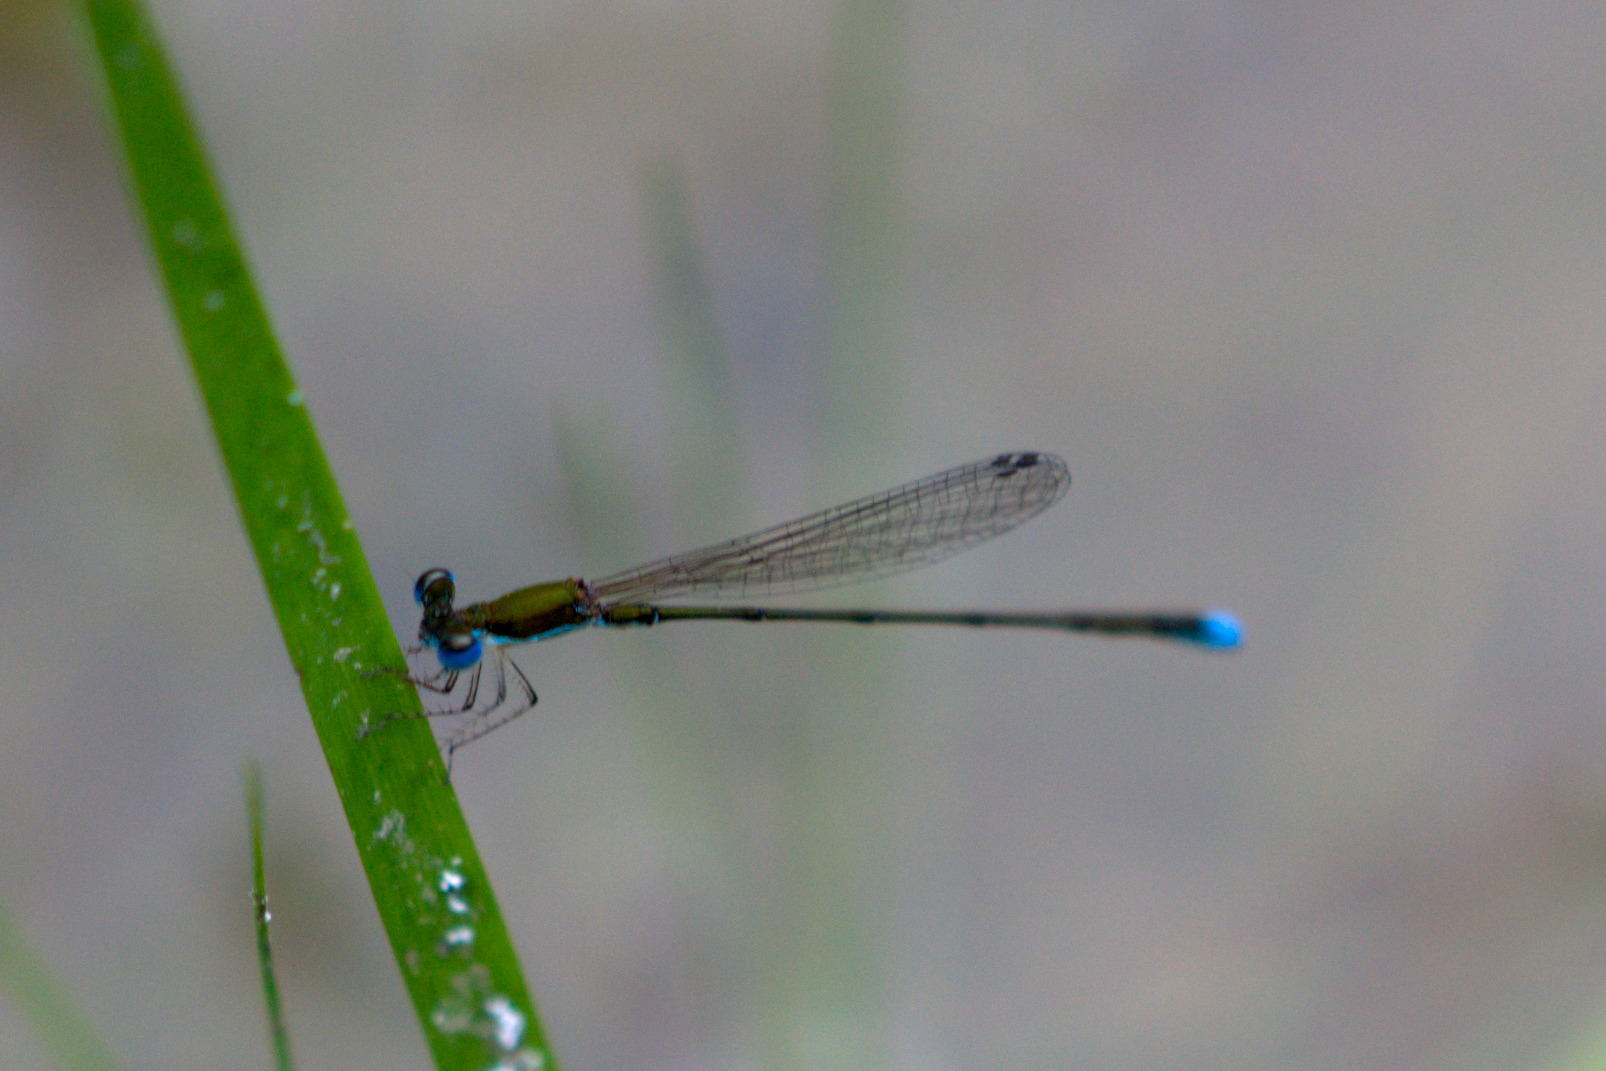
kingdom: Animalia
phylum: Arthropoda
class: Insecta
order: Odonata
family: Coenagrionidae
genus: Nehalennia
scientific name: Nehalennia integricollis
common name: Southern sprite
